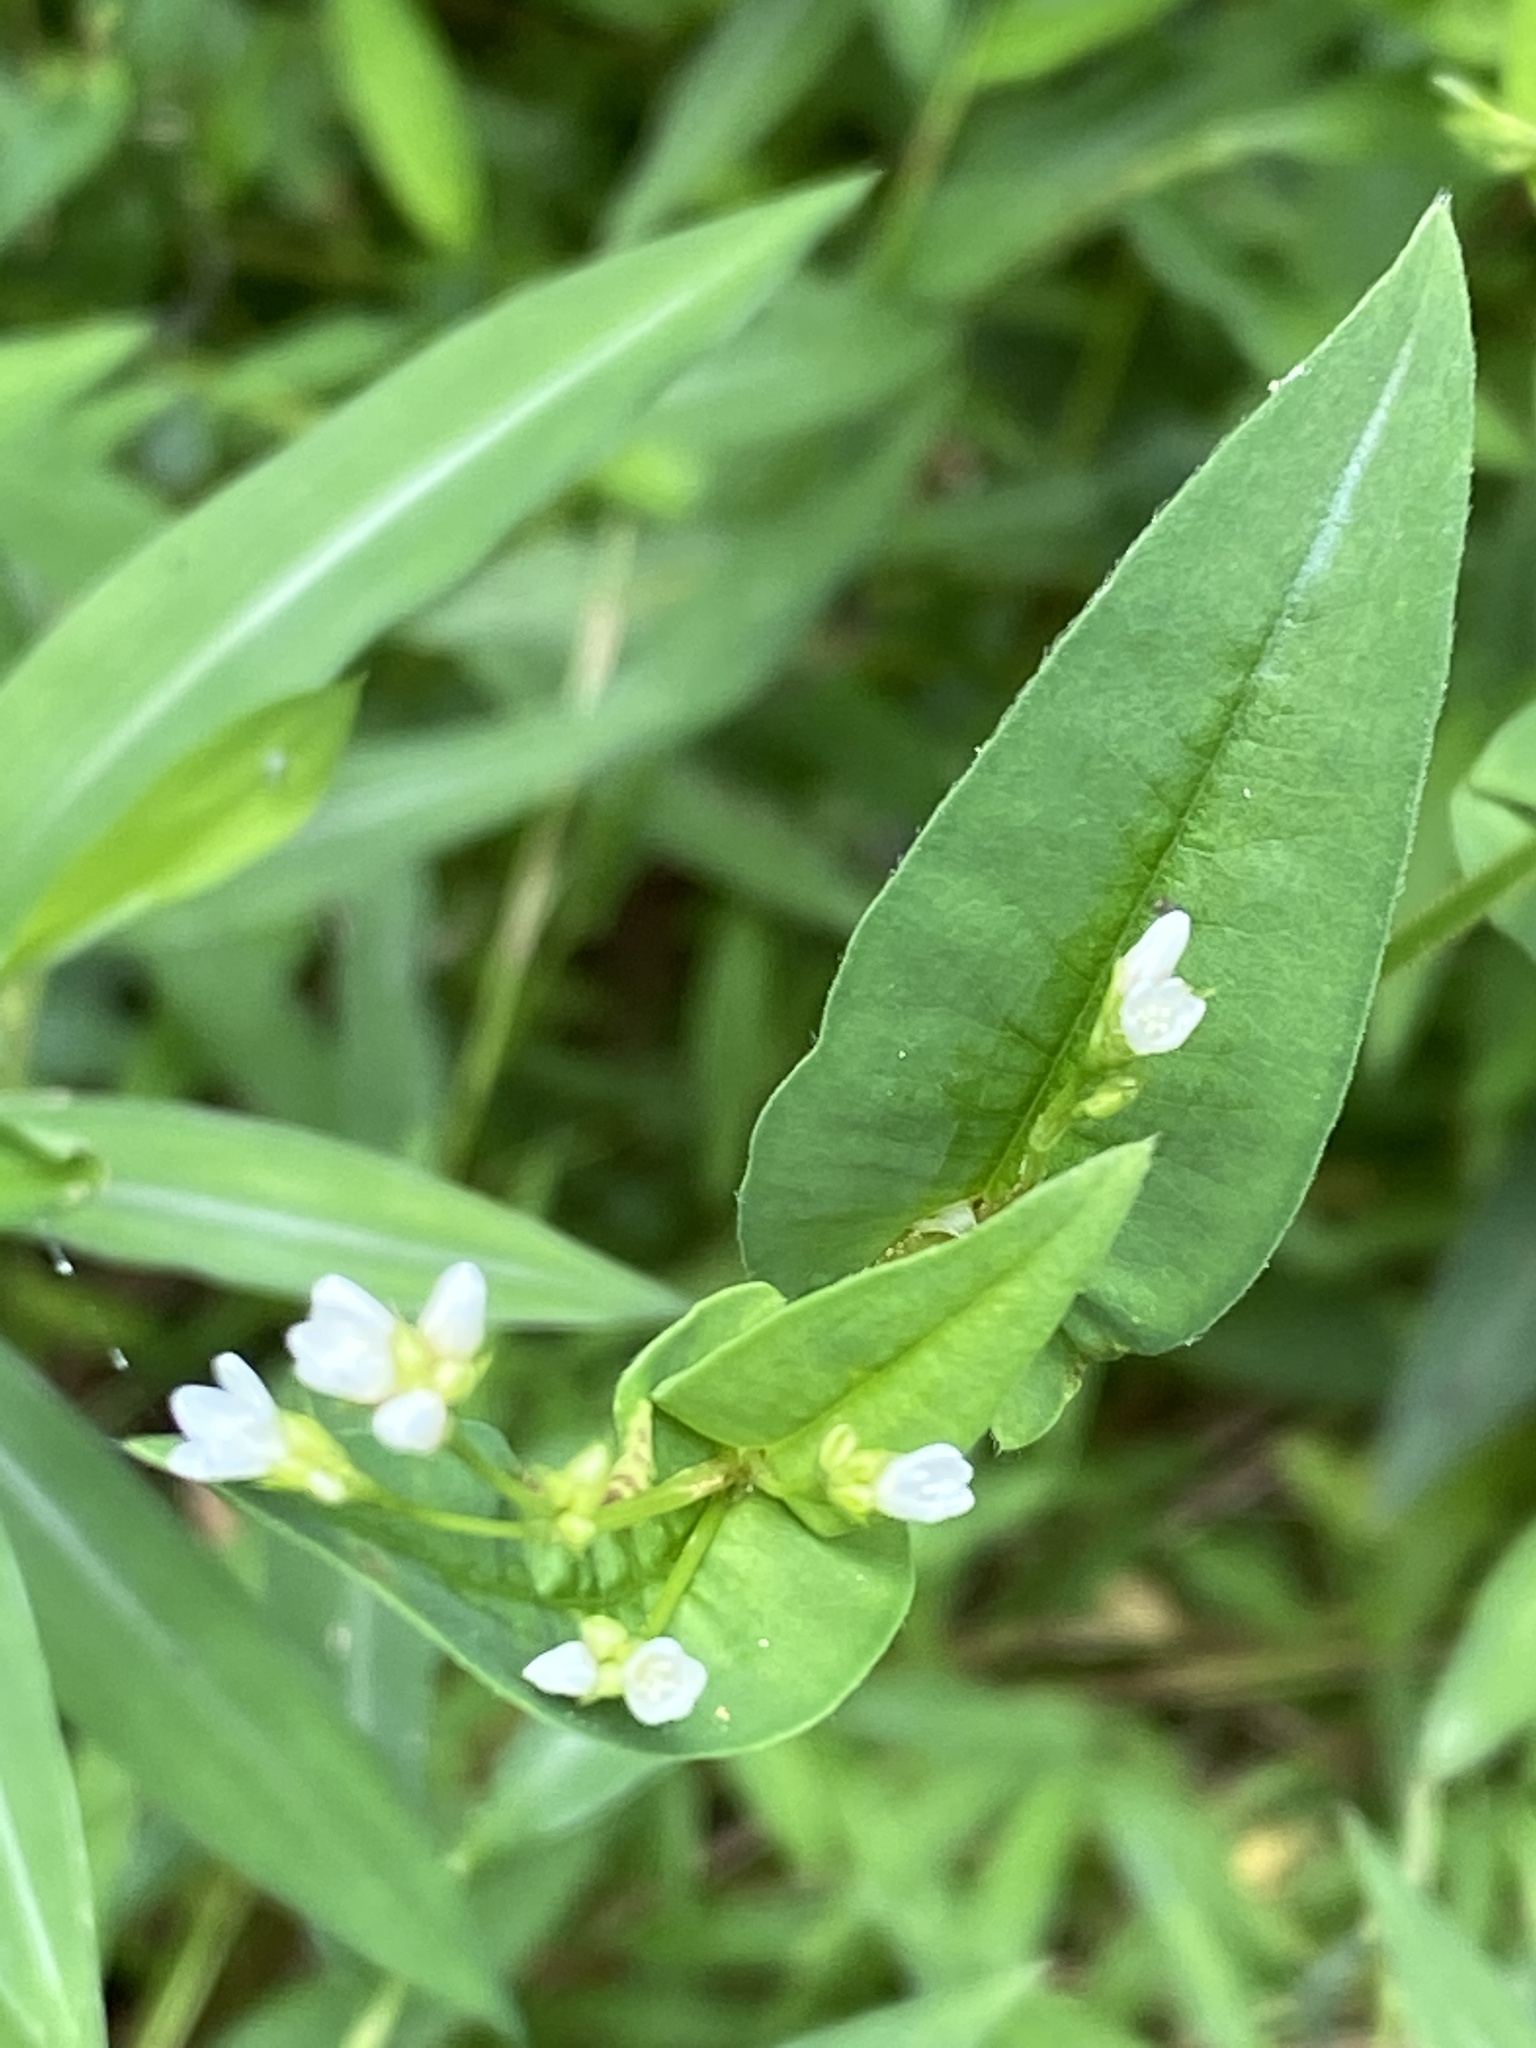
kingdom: Plantae
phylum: Tracheophyta
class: Magnoliopsida
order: Caryophyllales
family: Polygonaceae
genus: Persicaria
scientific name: Persicaria sagittata
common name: American tearthumb
